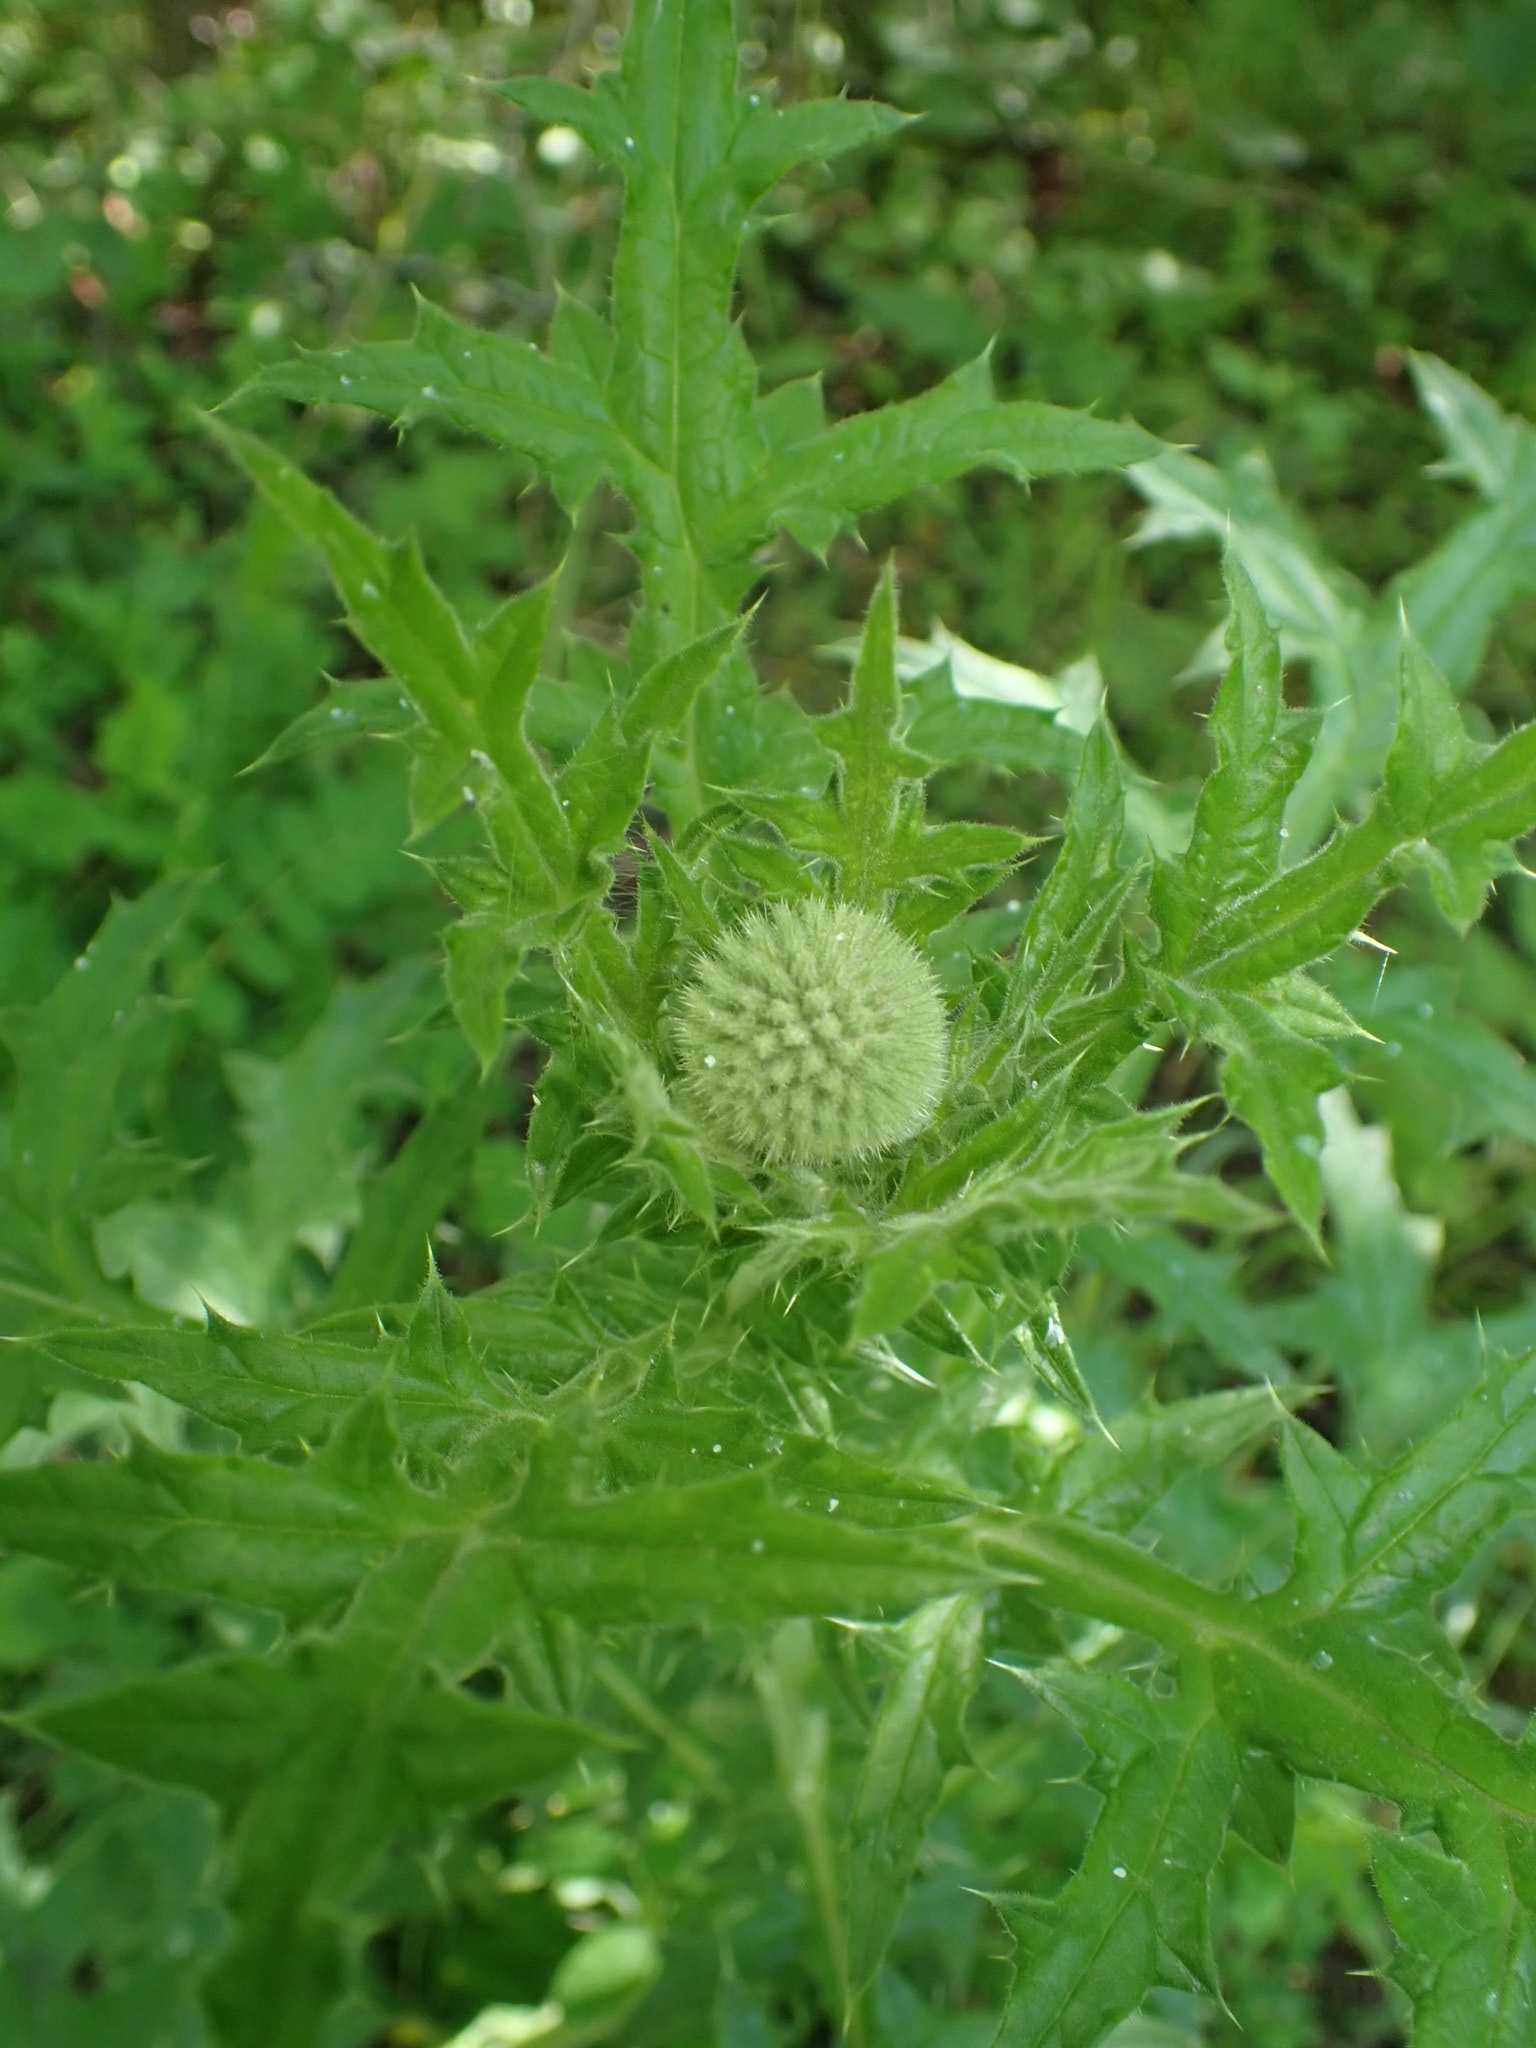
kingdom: Plantae
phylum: Tracheophyta
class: Magnoliopsida
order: Asterales
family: Asteraceae
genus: Echinops
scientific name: Echinops sphaerocephalus
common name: Glandular globe-thistle
